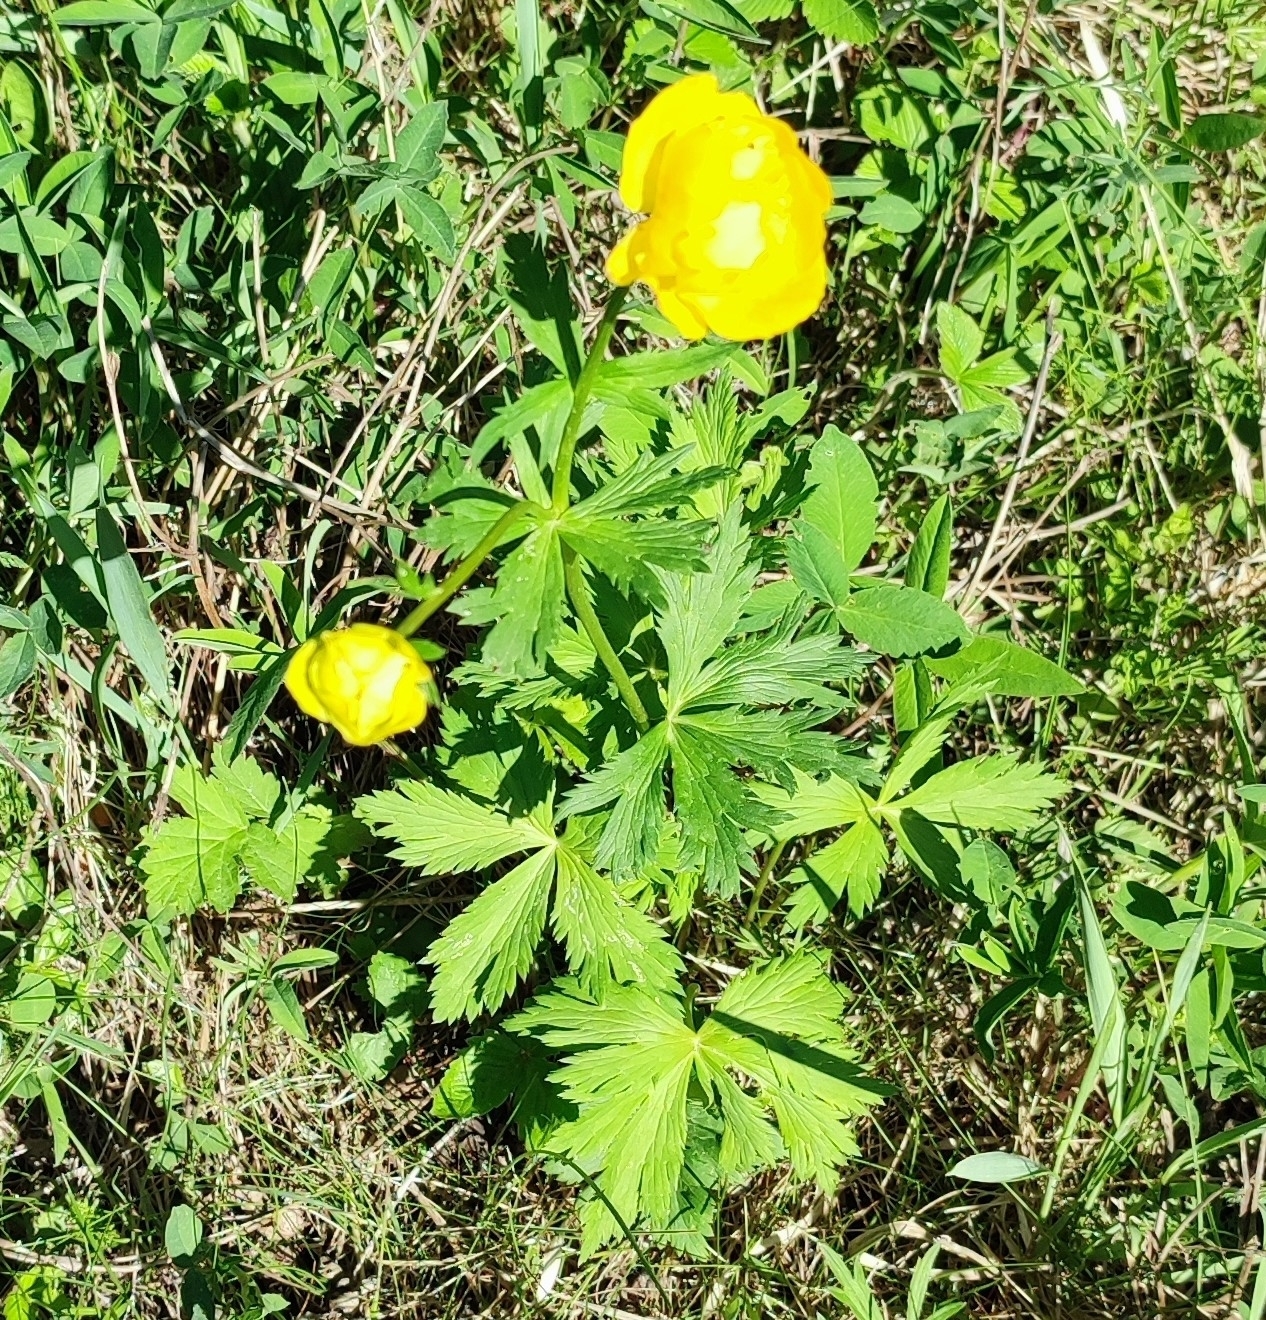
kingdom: Plantae
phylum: Tracheophyta
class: Magnoliopsida
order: Ranunculales
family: Ranunculaceae
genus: Trollius
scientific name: Trollius europaeus
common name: European globeflower
